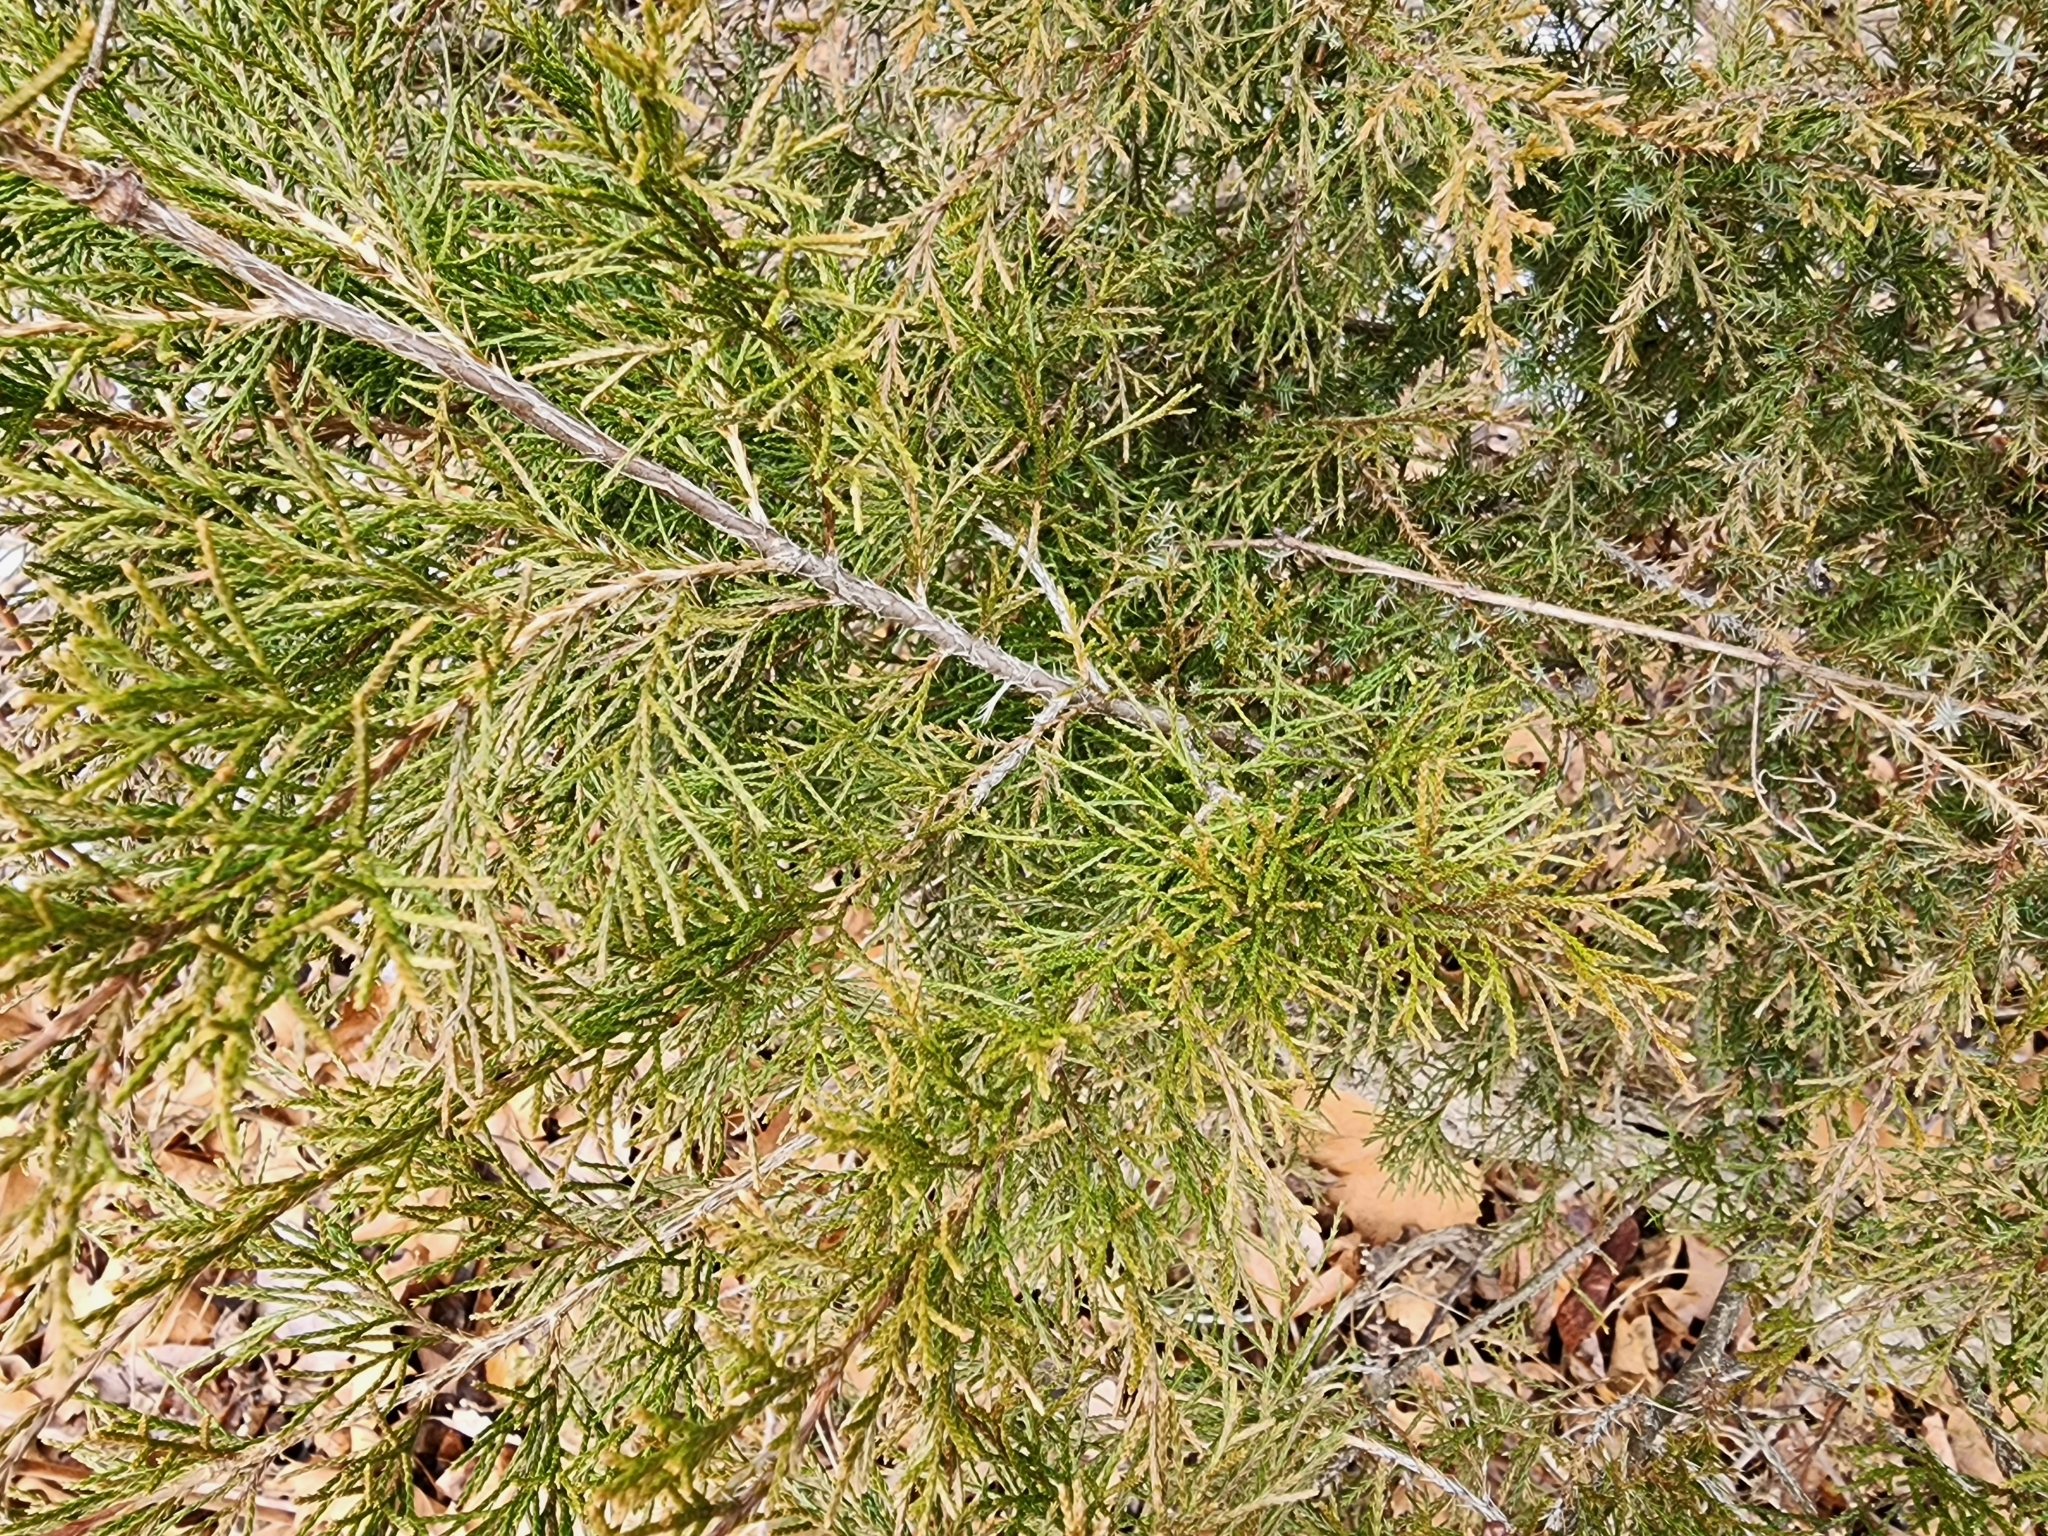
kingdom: Plantae
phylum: Tracheophyta
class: Pinopsida
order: Pinales
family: Cupressaceae
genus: Juniperus
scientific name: Juniperus virginiana
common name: Red juniper
